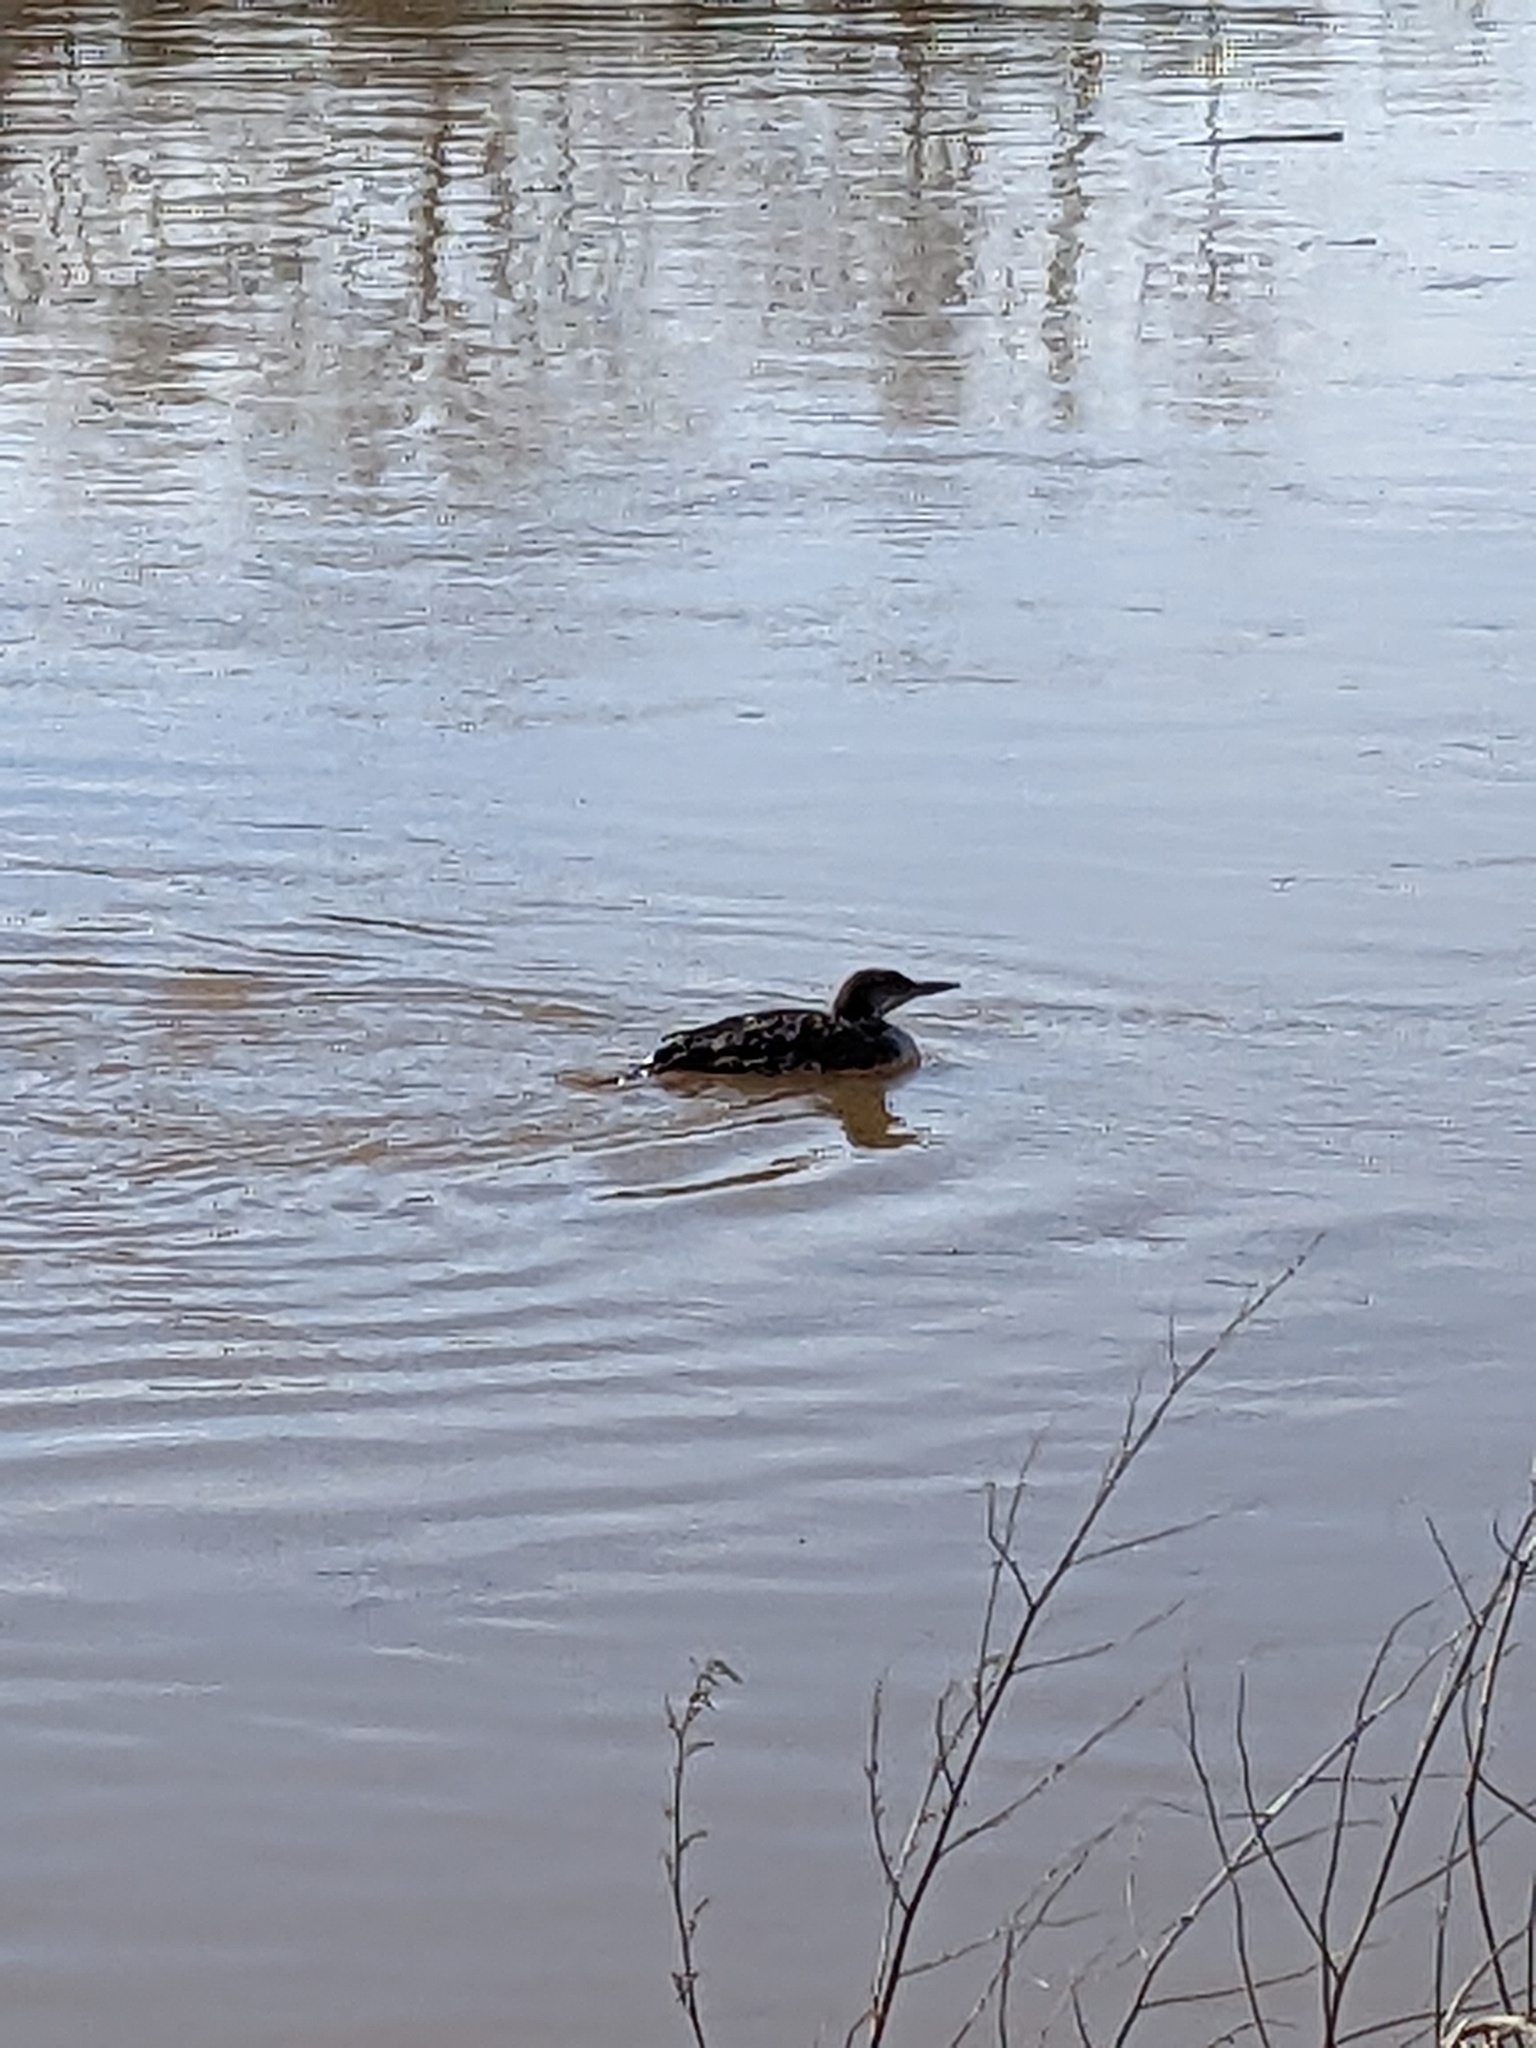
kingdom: Animalia
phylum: Chordata
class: Aves
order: Gaviiformes
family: Gaviidae
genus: Gavia
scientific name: Gavia immer
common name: Common loon
